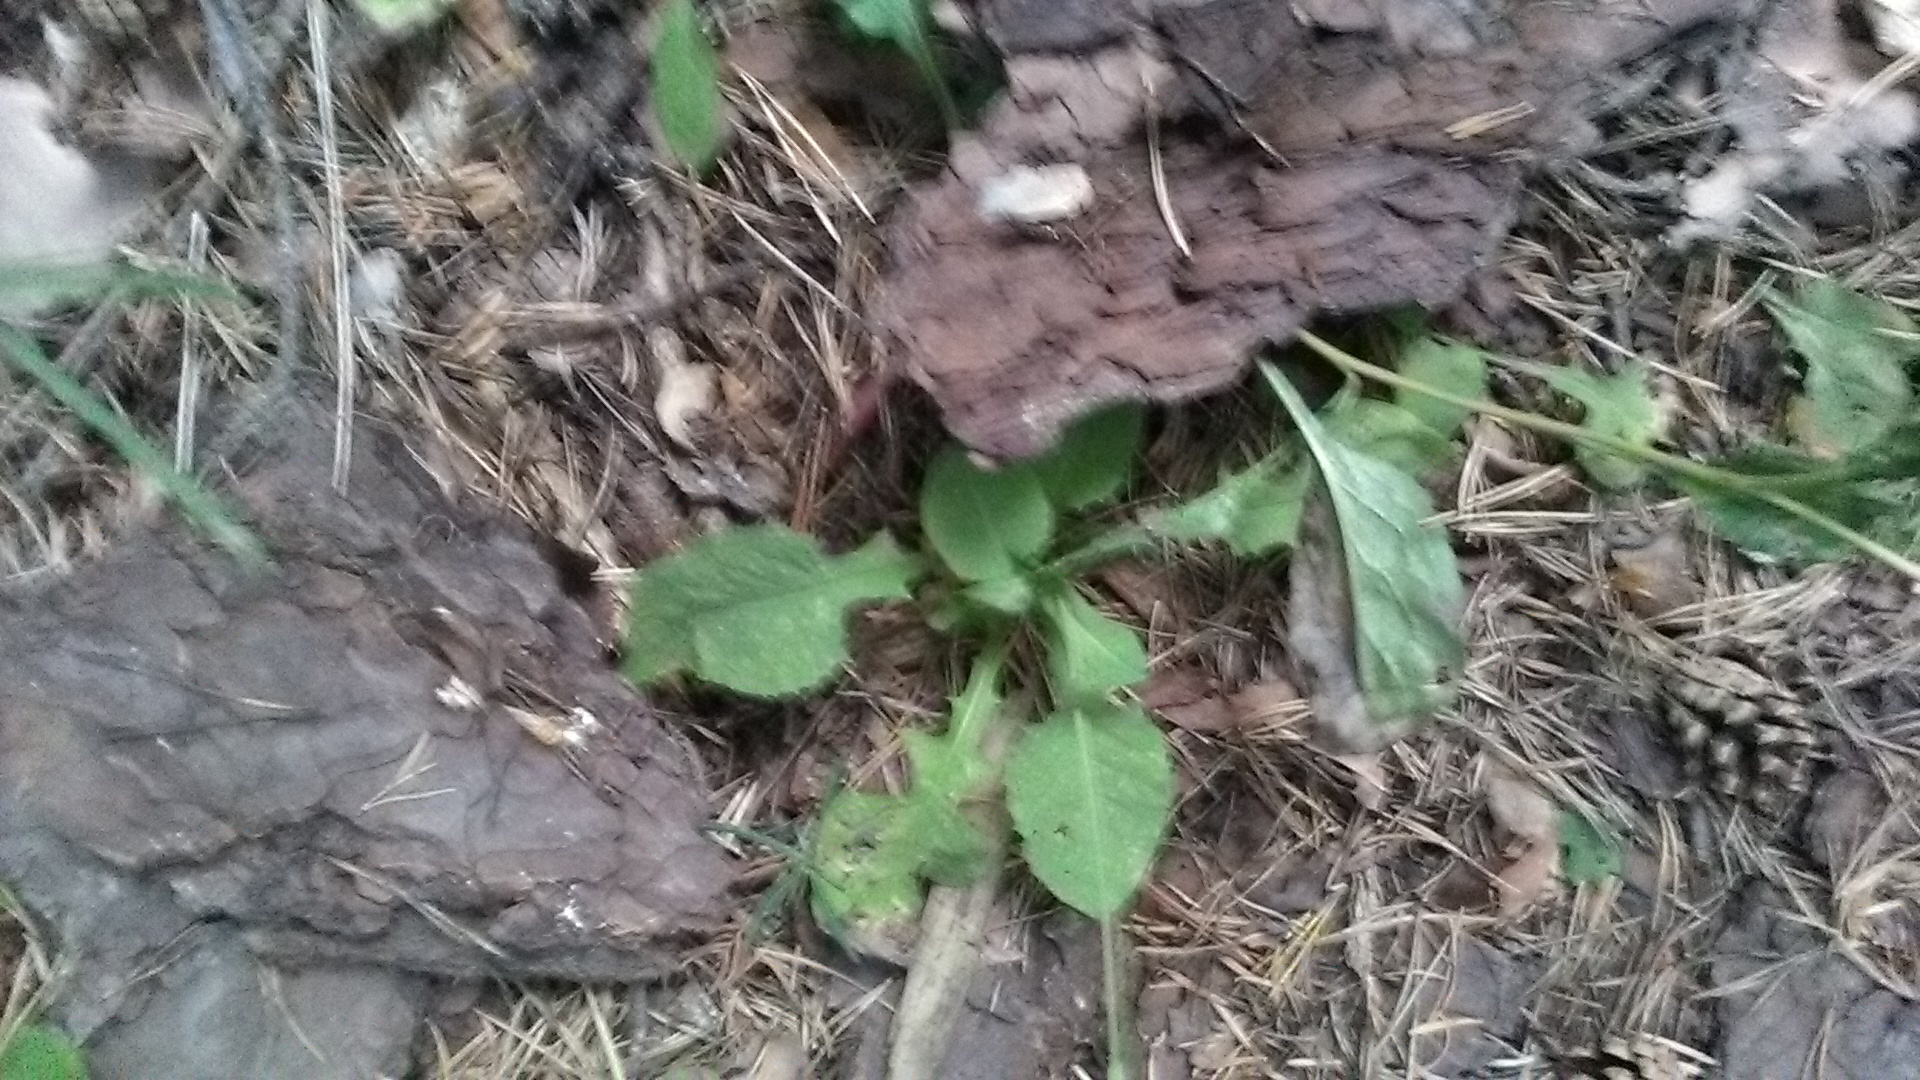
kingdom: Plantae
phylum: Tracheophyta
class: Magnoliopsida
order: Asterales
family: Asteraceae
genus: Lactuca
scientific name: Lactuca racemosa
